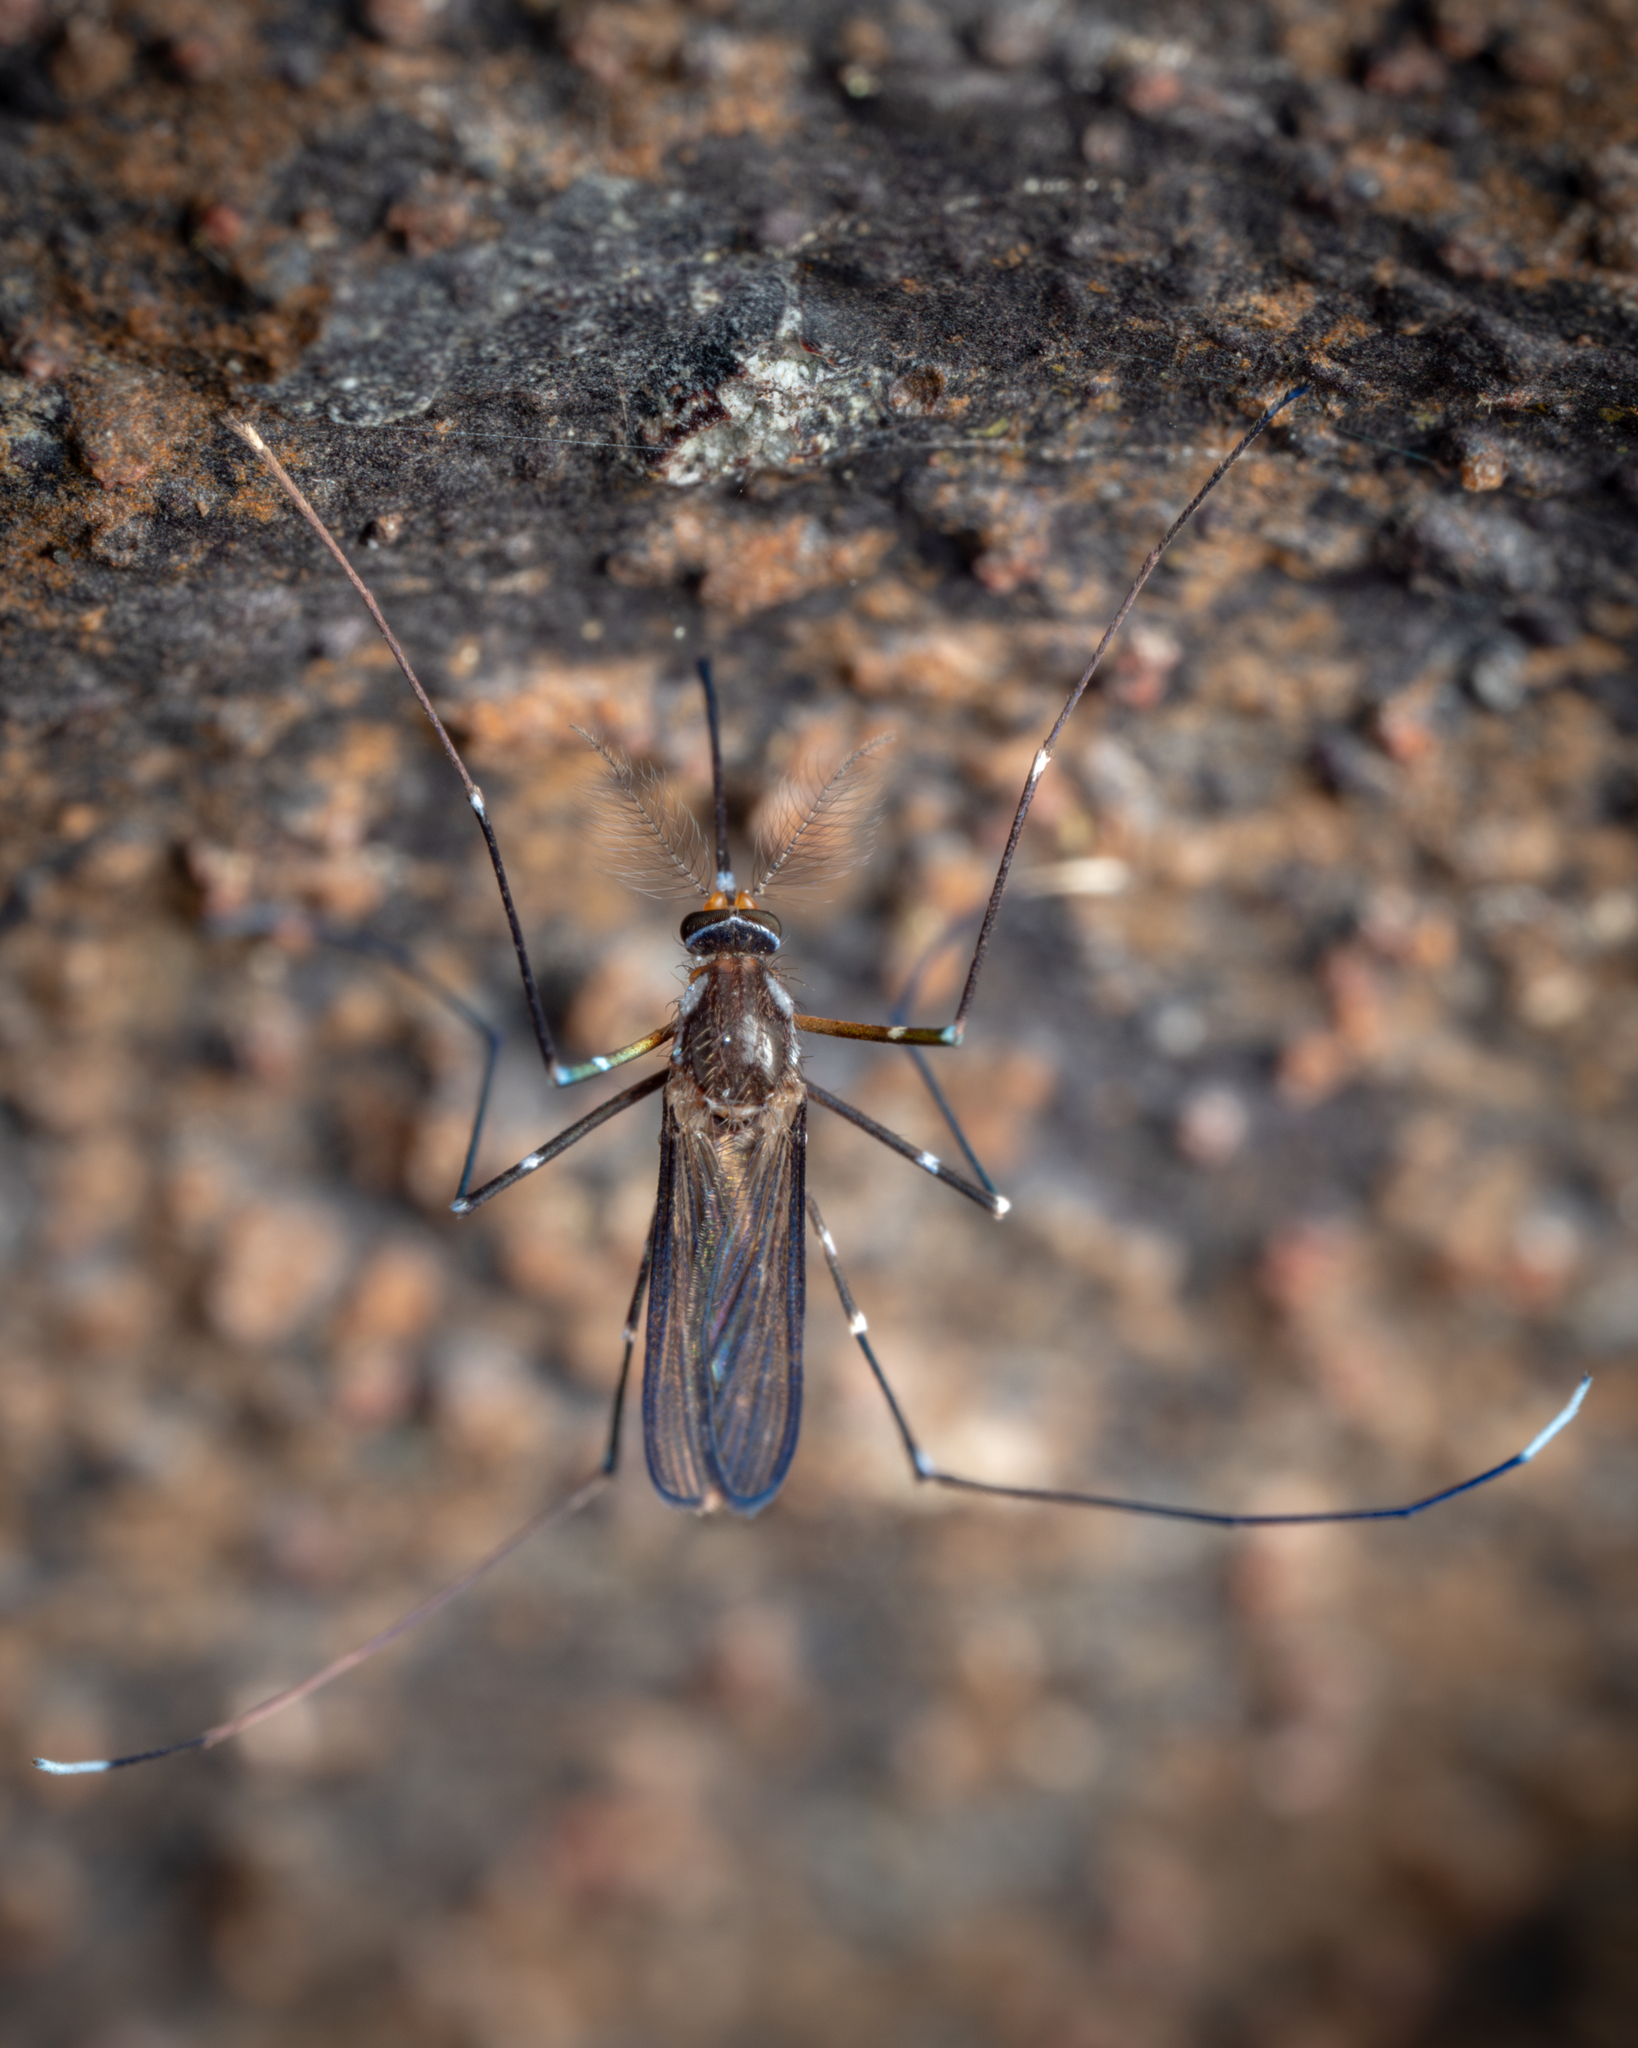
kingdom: Animalia
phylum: Arthropoda
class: Insecta
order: Diptera
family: Culicidae
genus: Maorigoeldia
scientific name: Maorigoeldia argyropus
